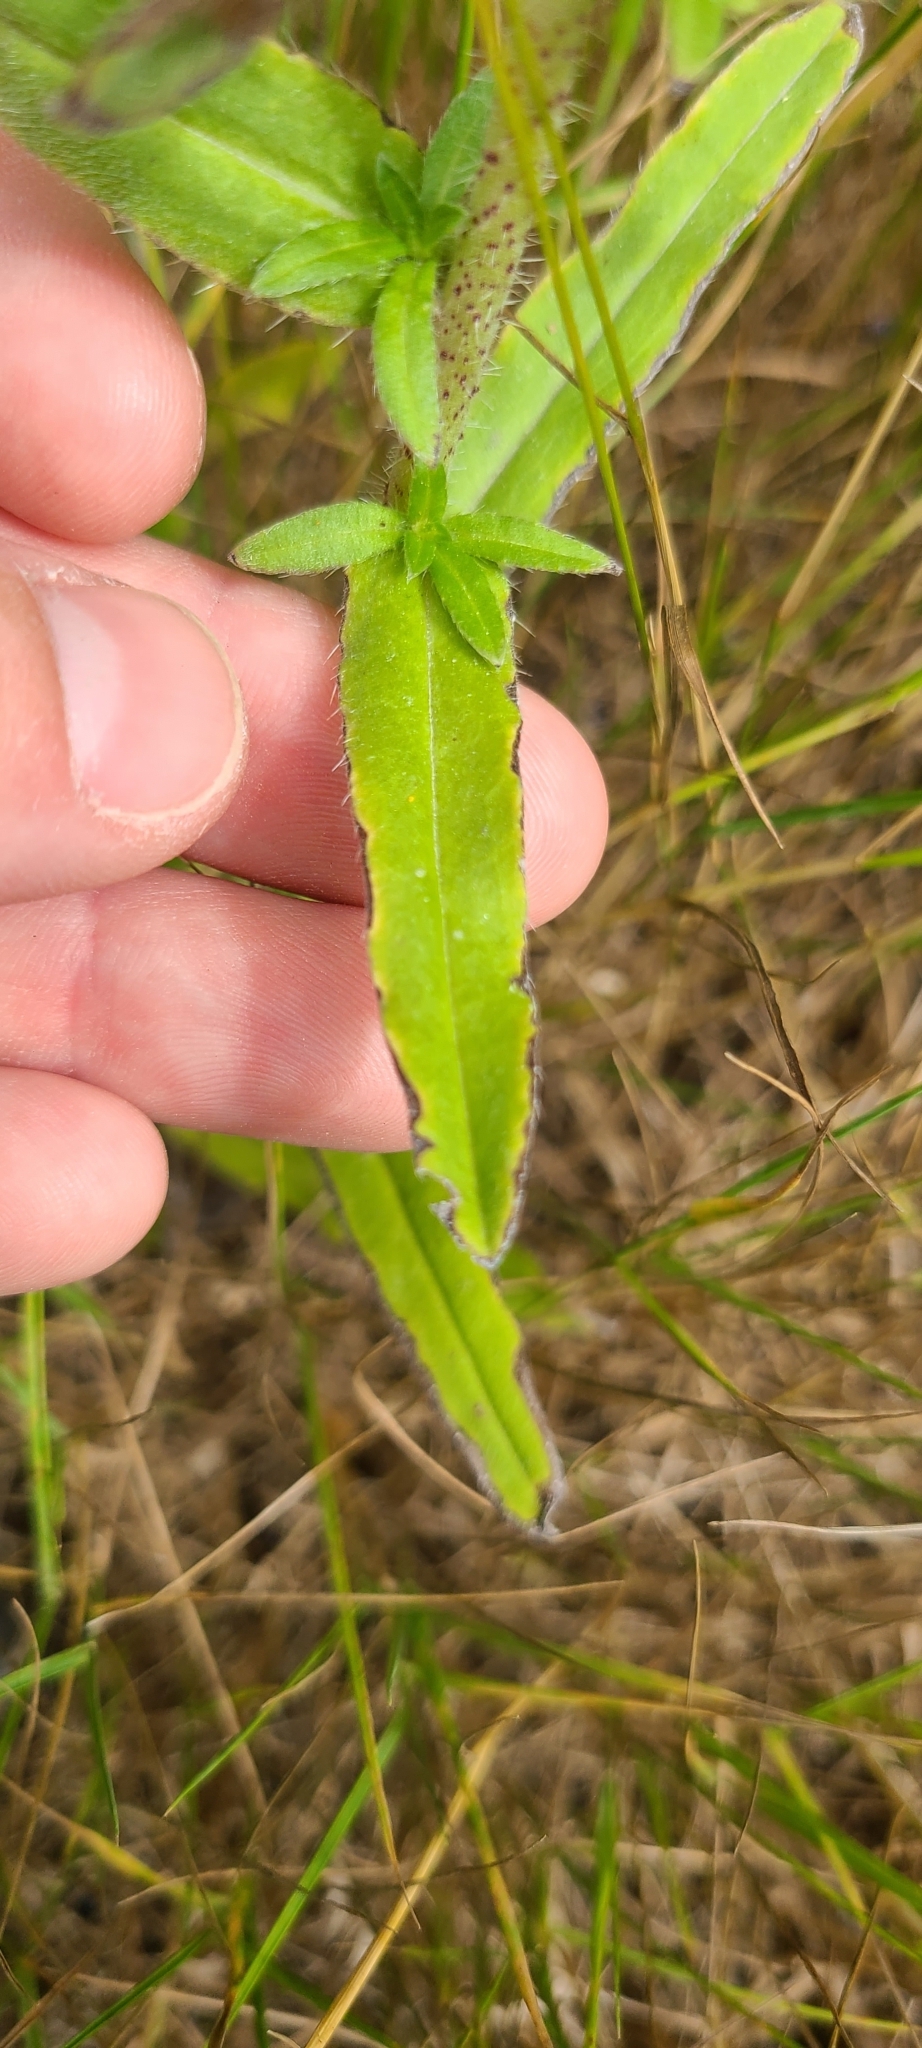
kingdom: Plantae
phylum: Tracheophyta
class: Magnoliopsida
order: Boraginales
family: Boraginaceae
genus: Echium
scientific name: Echium vulgare
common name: Common viper's bugloss
